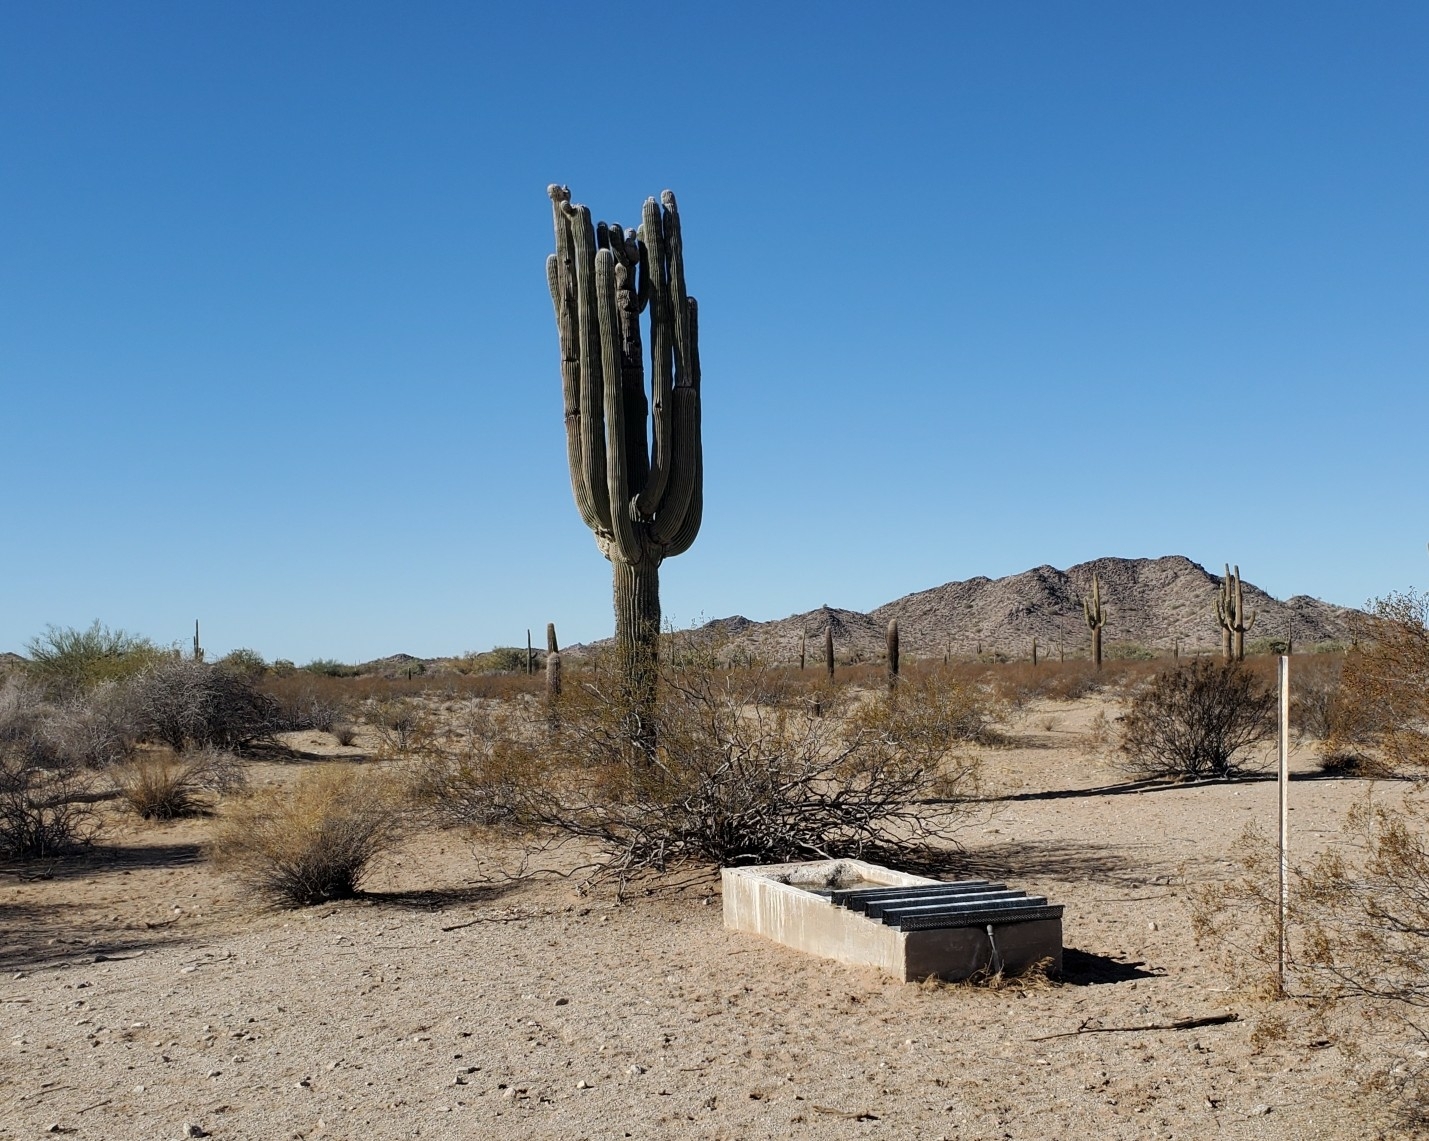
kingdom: Plantae
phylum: Tracheophyta
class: Magnoliopsida
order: Caryophyllales
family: Cactaceae
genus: Carnegiea
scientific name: Carnegiea gigantea
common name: Saguaro
